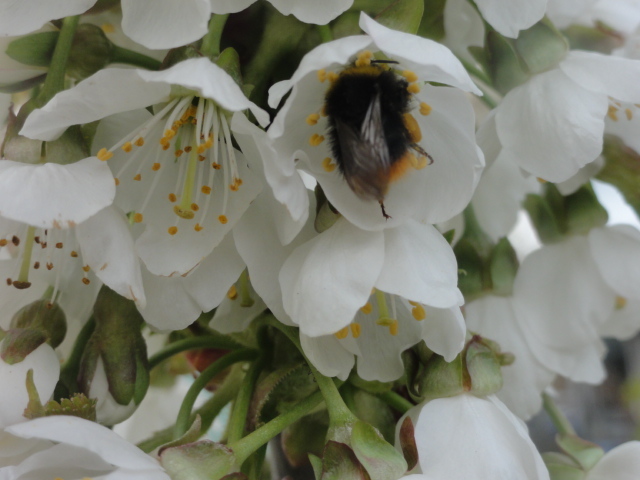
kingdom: Animalia
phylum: Arthropoda
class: Insecta
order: Hymenoptera
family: Apidae
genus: Bombus
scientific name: Bombus pratorum
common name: Early humble-bee
